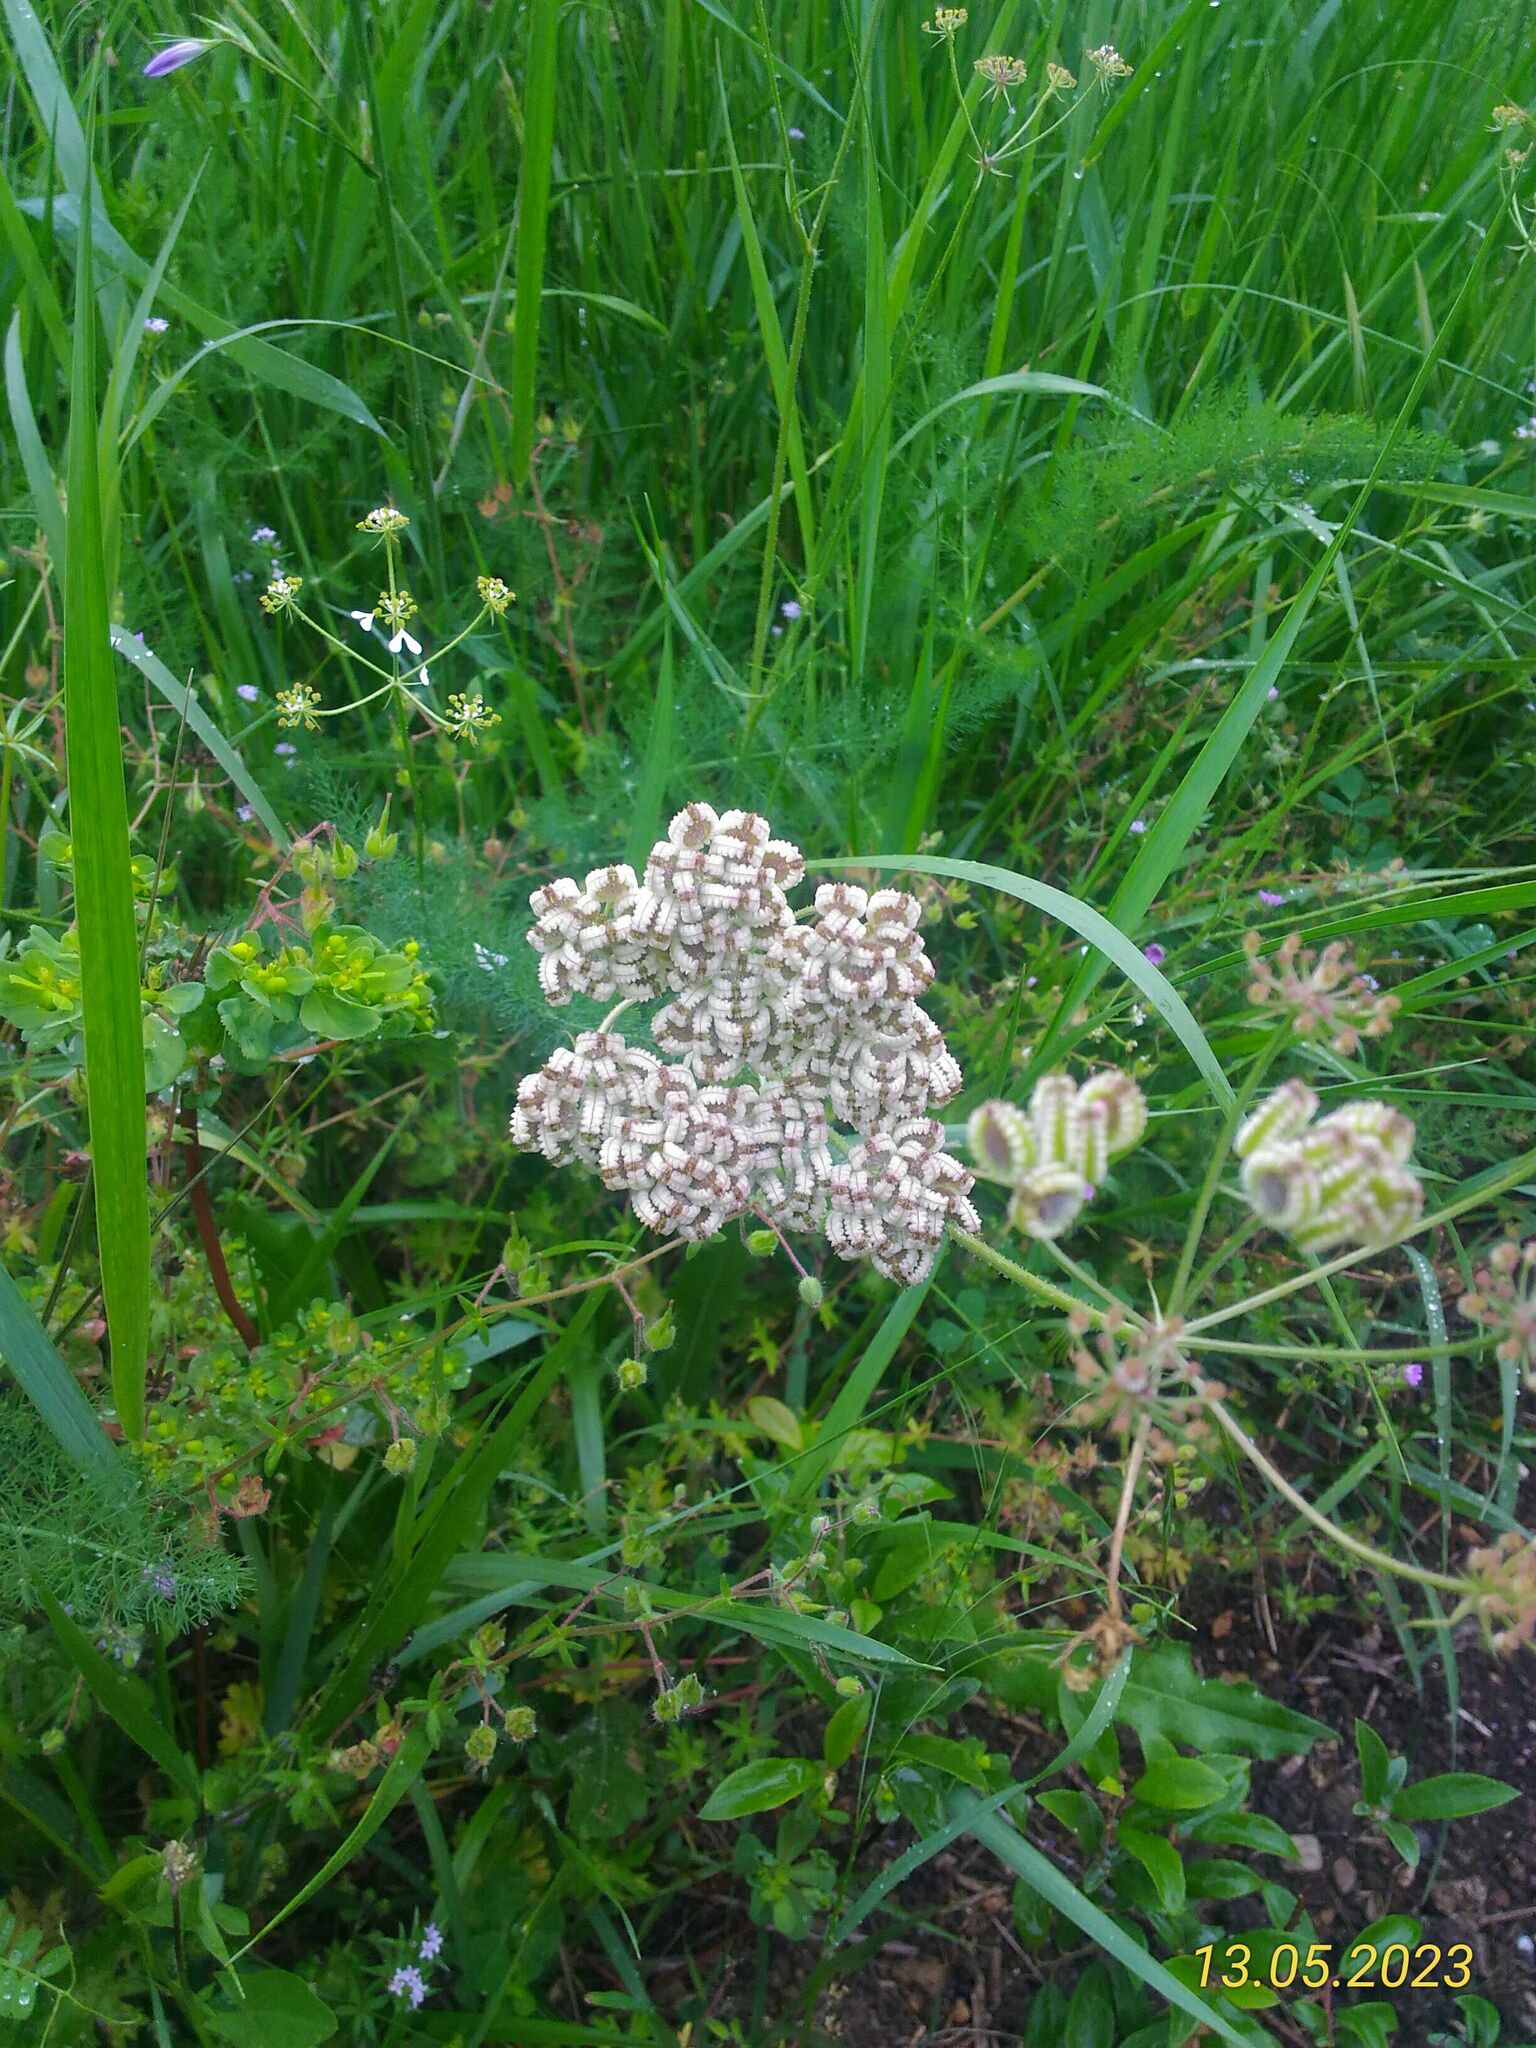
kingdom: Plantae
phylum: Tracheophyta
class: Magnoliopsida
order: Apiales
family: Apiaceae
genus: Tordylium
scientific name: Tordylium apulum
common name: Mediterranean hartwort
